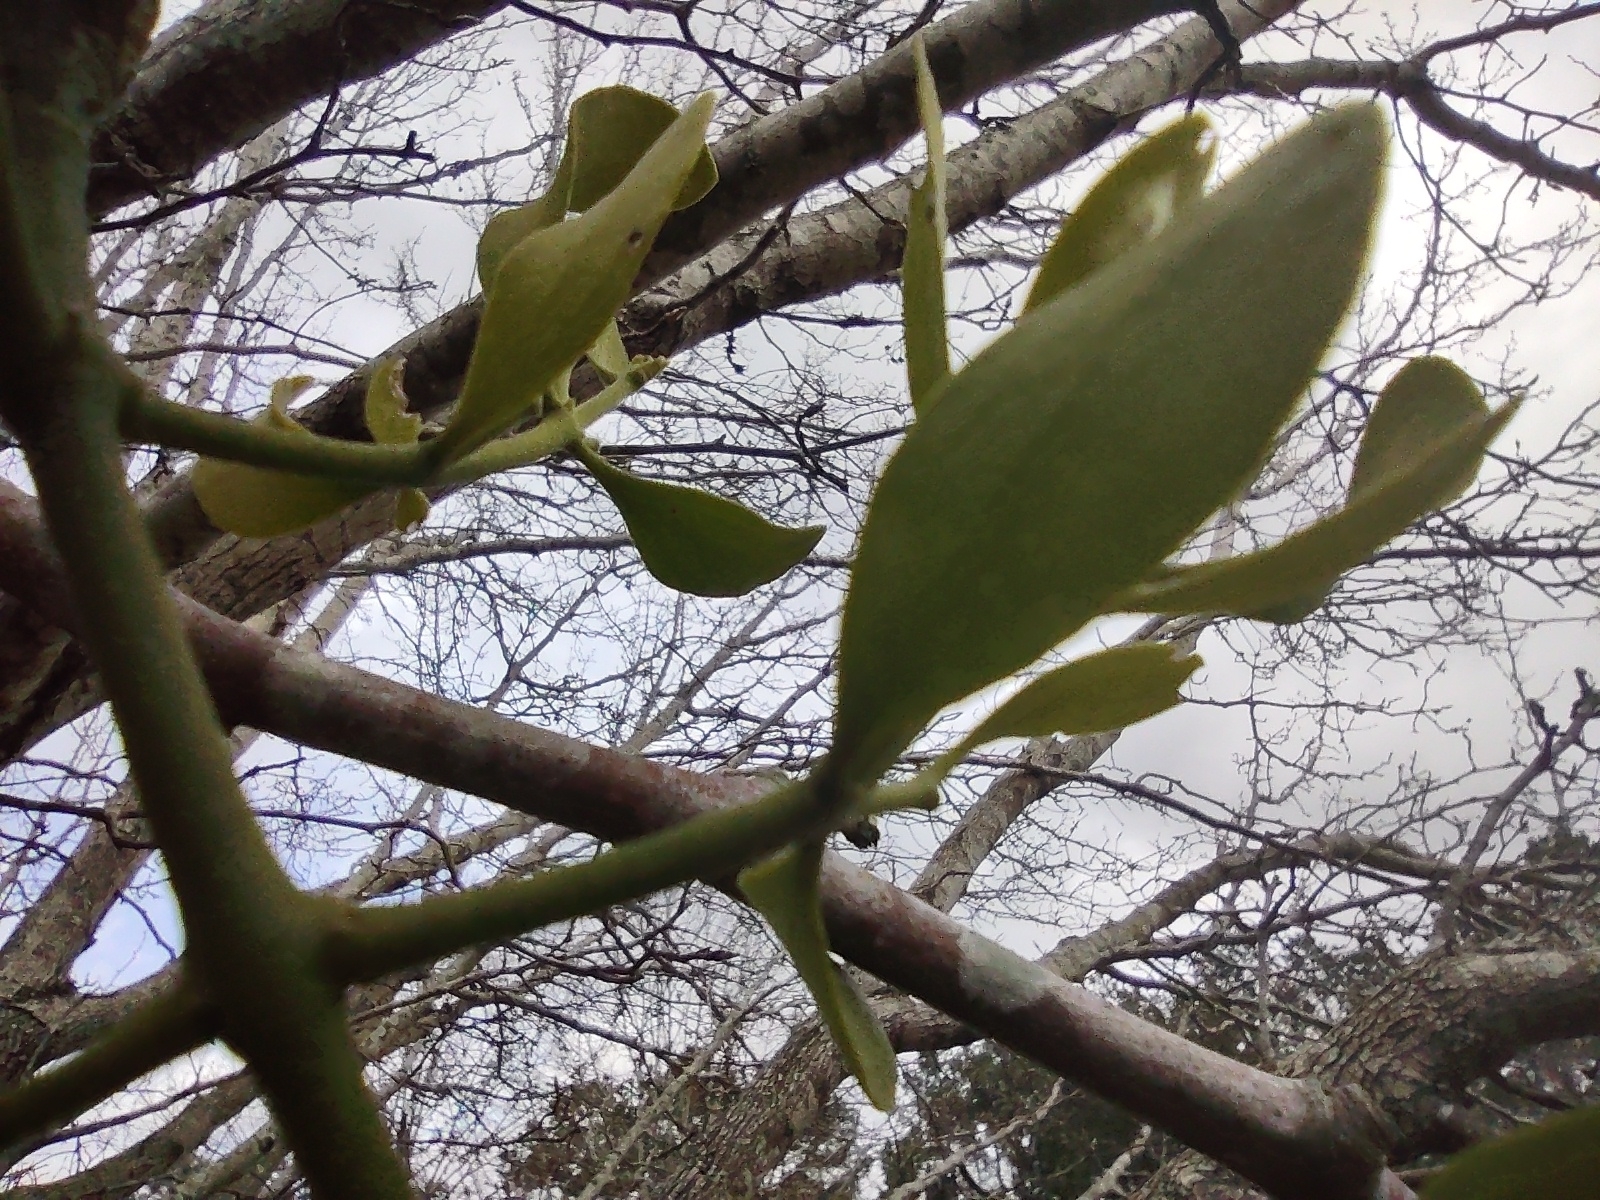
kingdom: Plantae
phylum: Tracheophyta
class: Magnoliopsida
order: Santalales
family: Viscaceae
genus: Phoradendron
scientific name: Phoradendron leucarpum
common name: Pacific mistletoe
